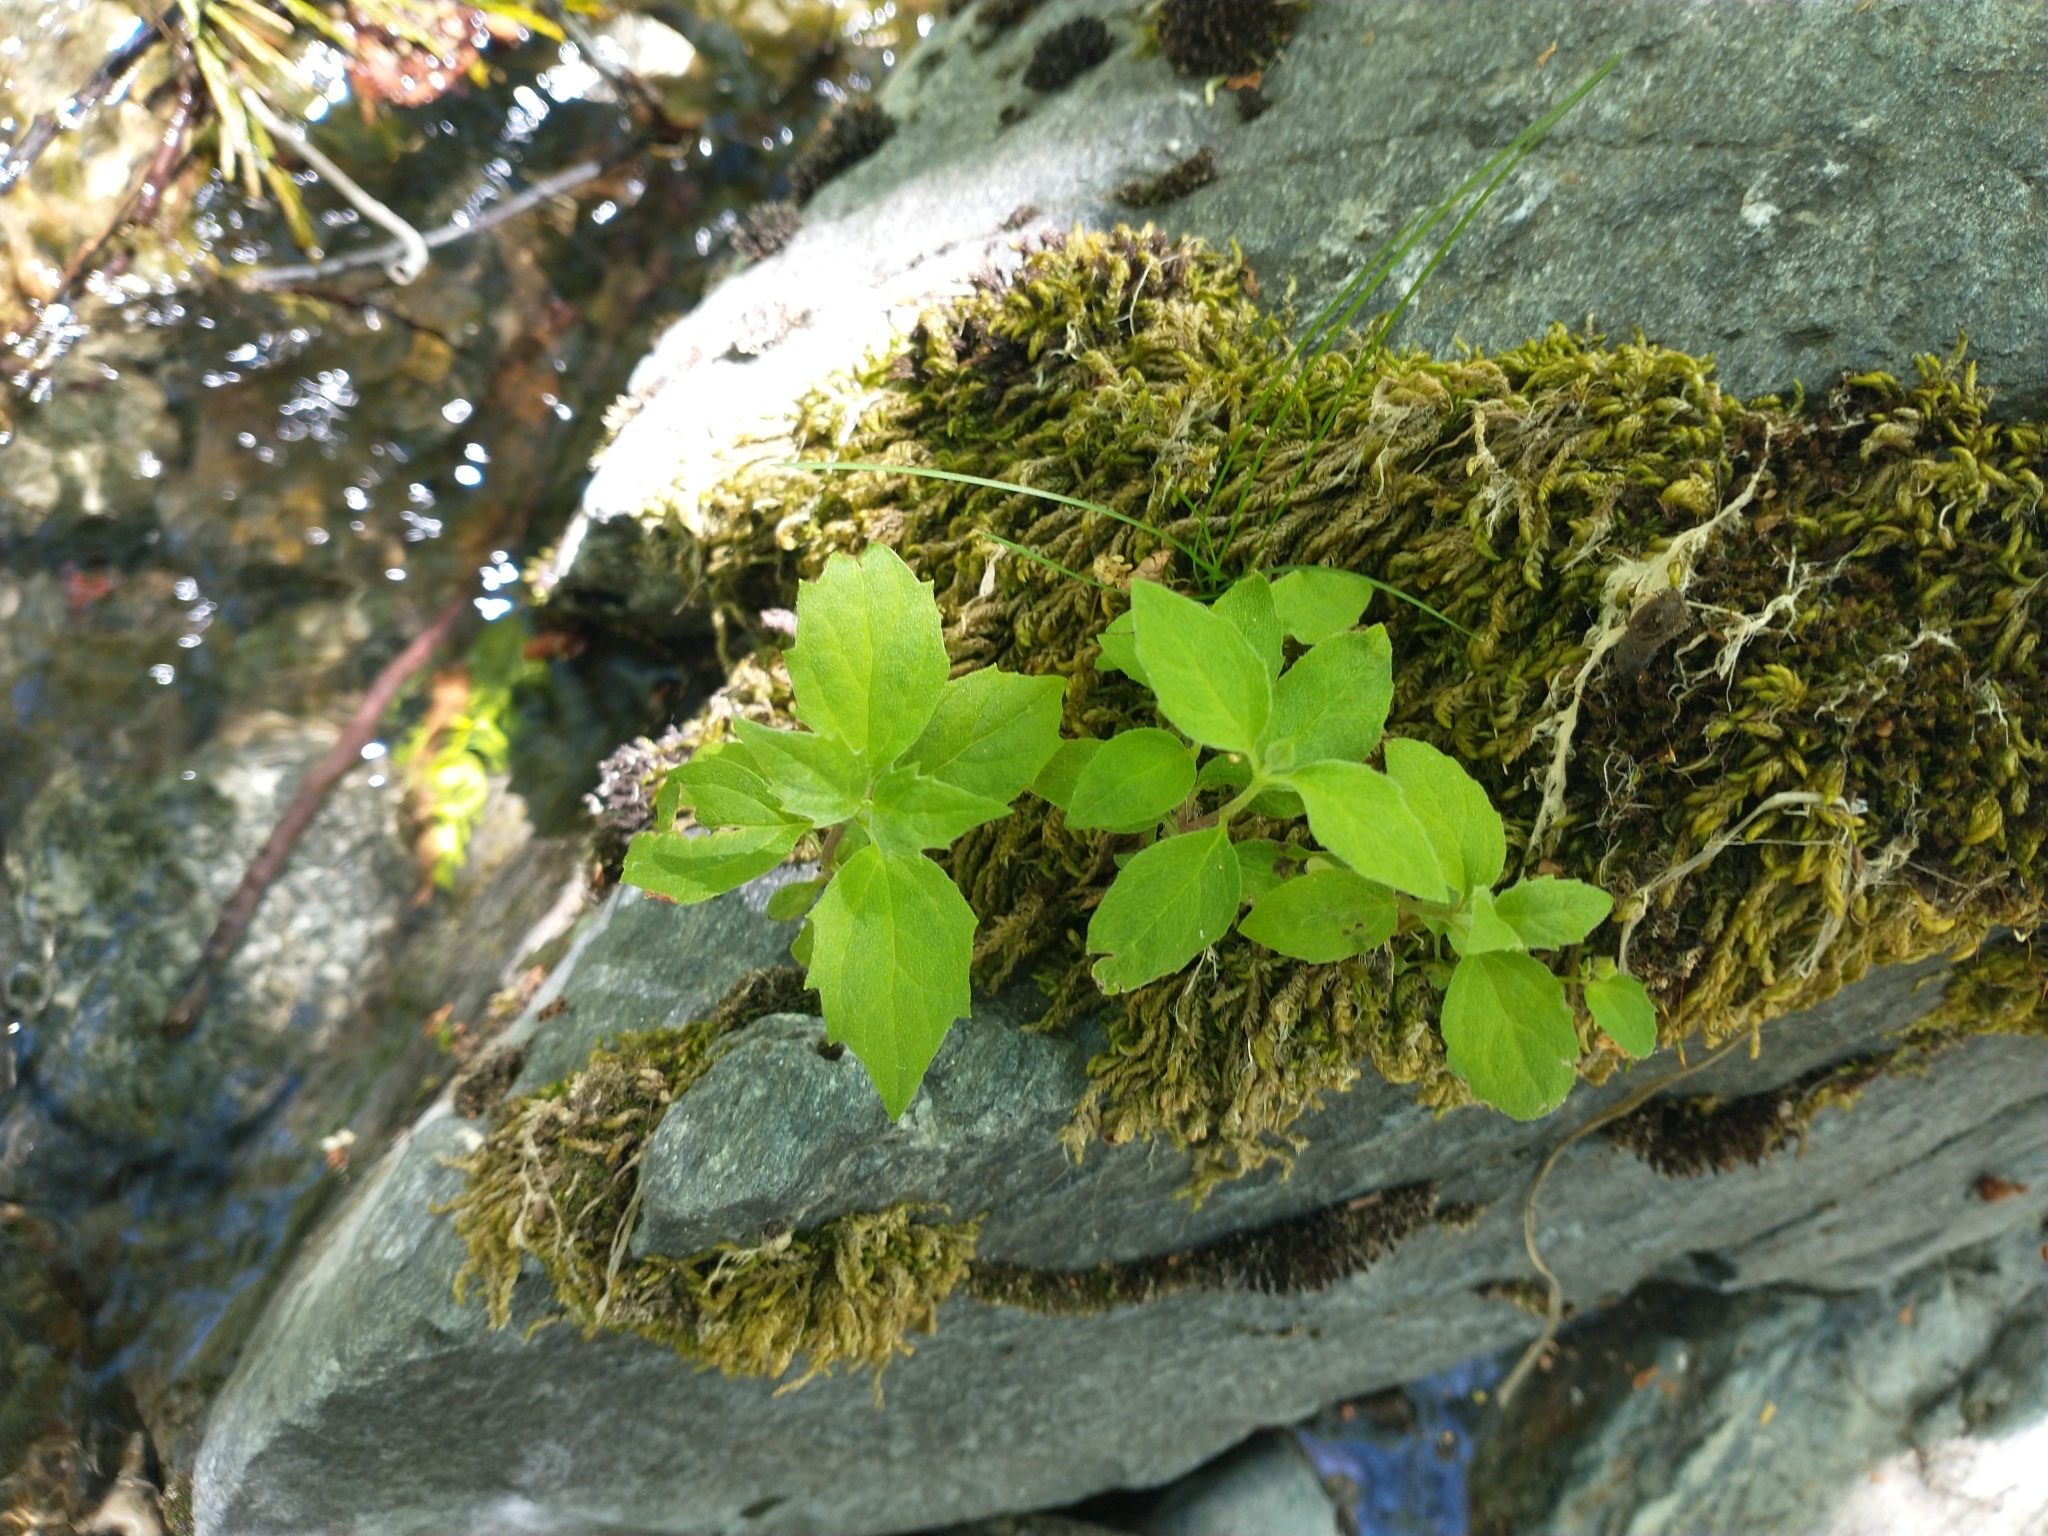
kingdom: Plantae
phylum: Tracheophyta
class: Magnoliopsida
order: Lamiales
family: Phrymaceae
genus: Erythranthe
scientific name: Erythranthe cardinalis
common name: Scarlet monkey-flower
